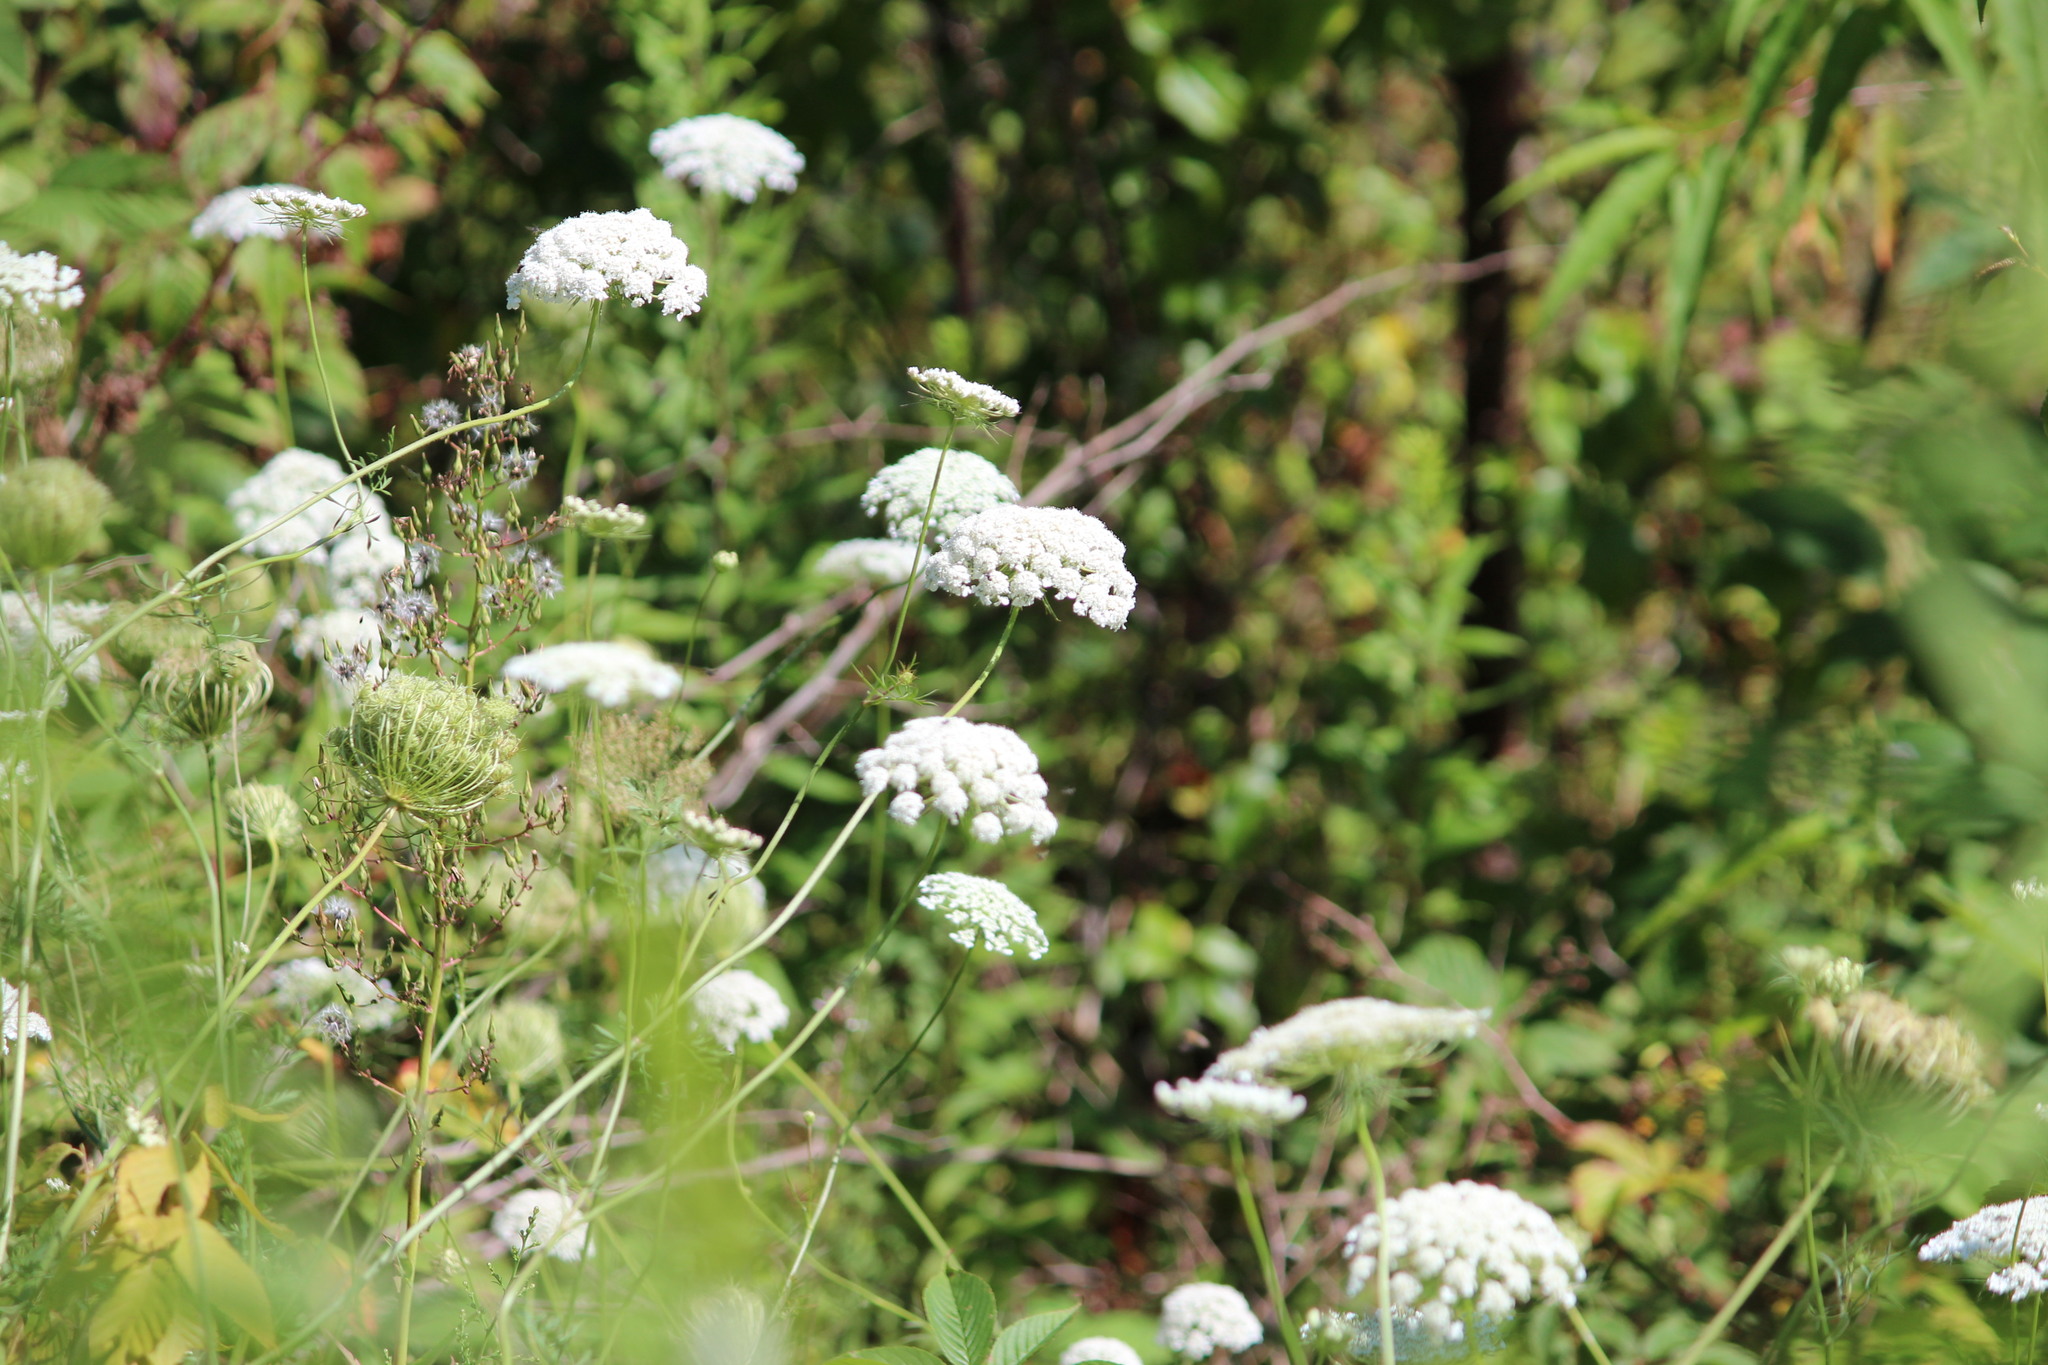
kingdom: Plantae
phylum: Tracheophyta
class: Magnoliopsida
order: Apiales
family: Apiaceae
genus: Daucus
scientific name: Daucus carota
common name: Wild carrot
